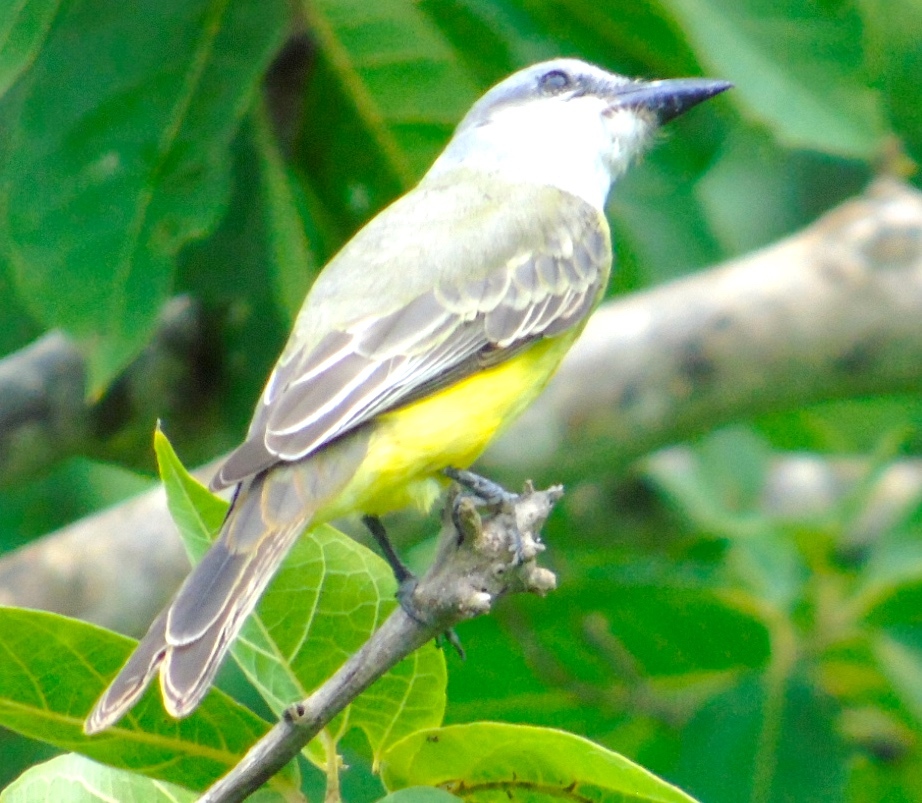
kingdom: Animalia
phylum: Chordata
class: Aves
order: Passeriformes
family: Tyrannidae
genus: Tyrannus
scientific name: Tyrannus melancholicus
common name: Tropical kingbird
